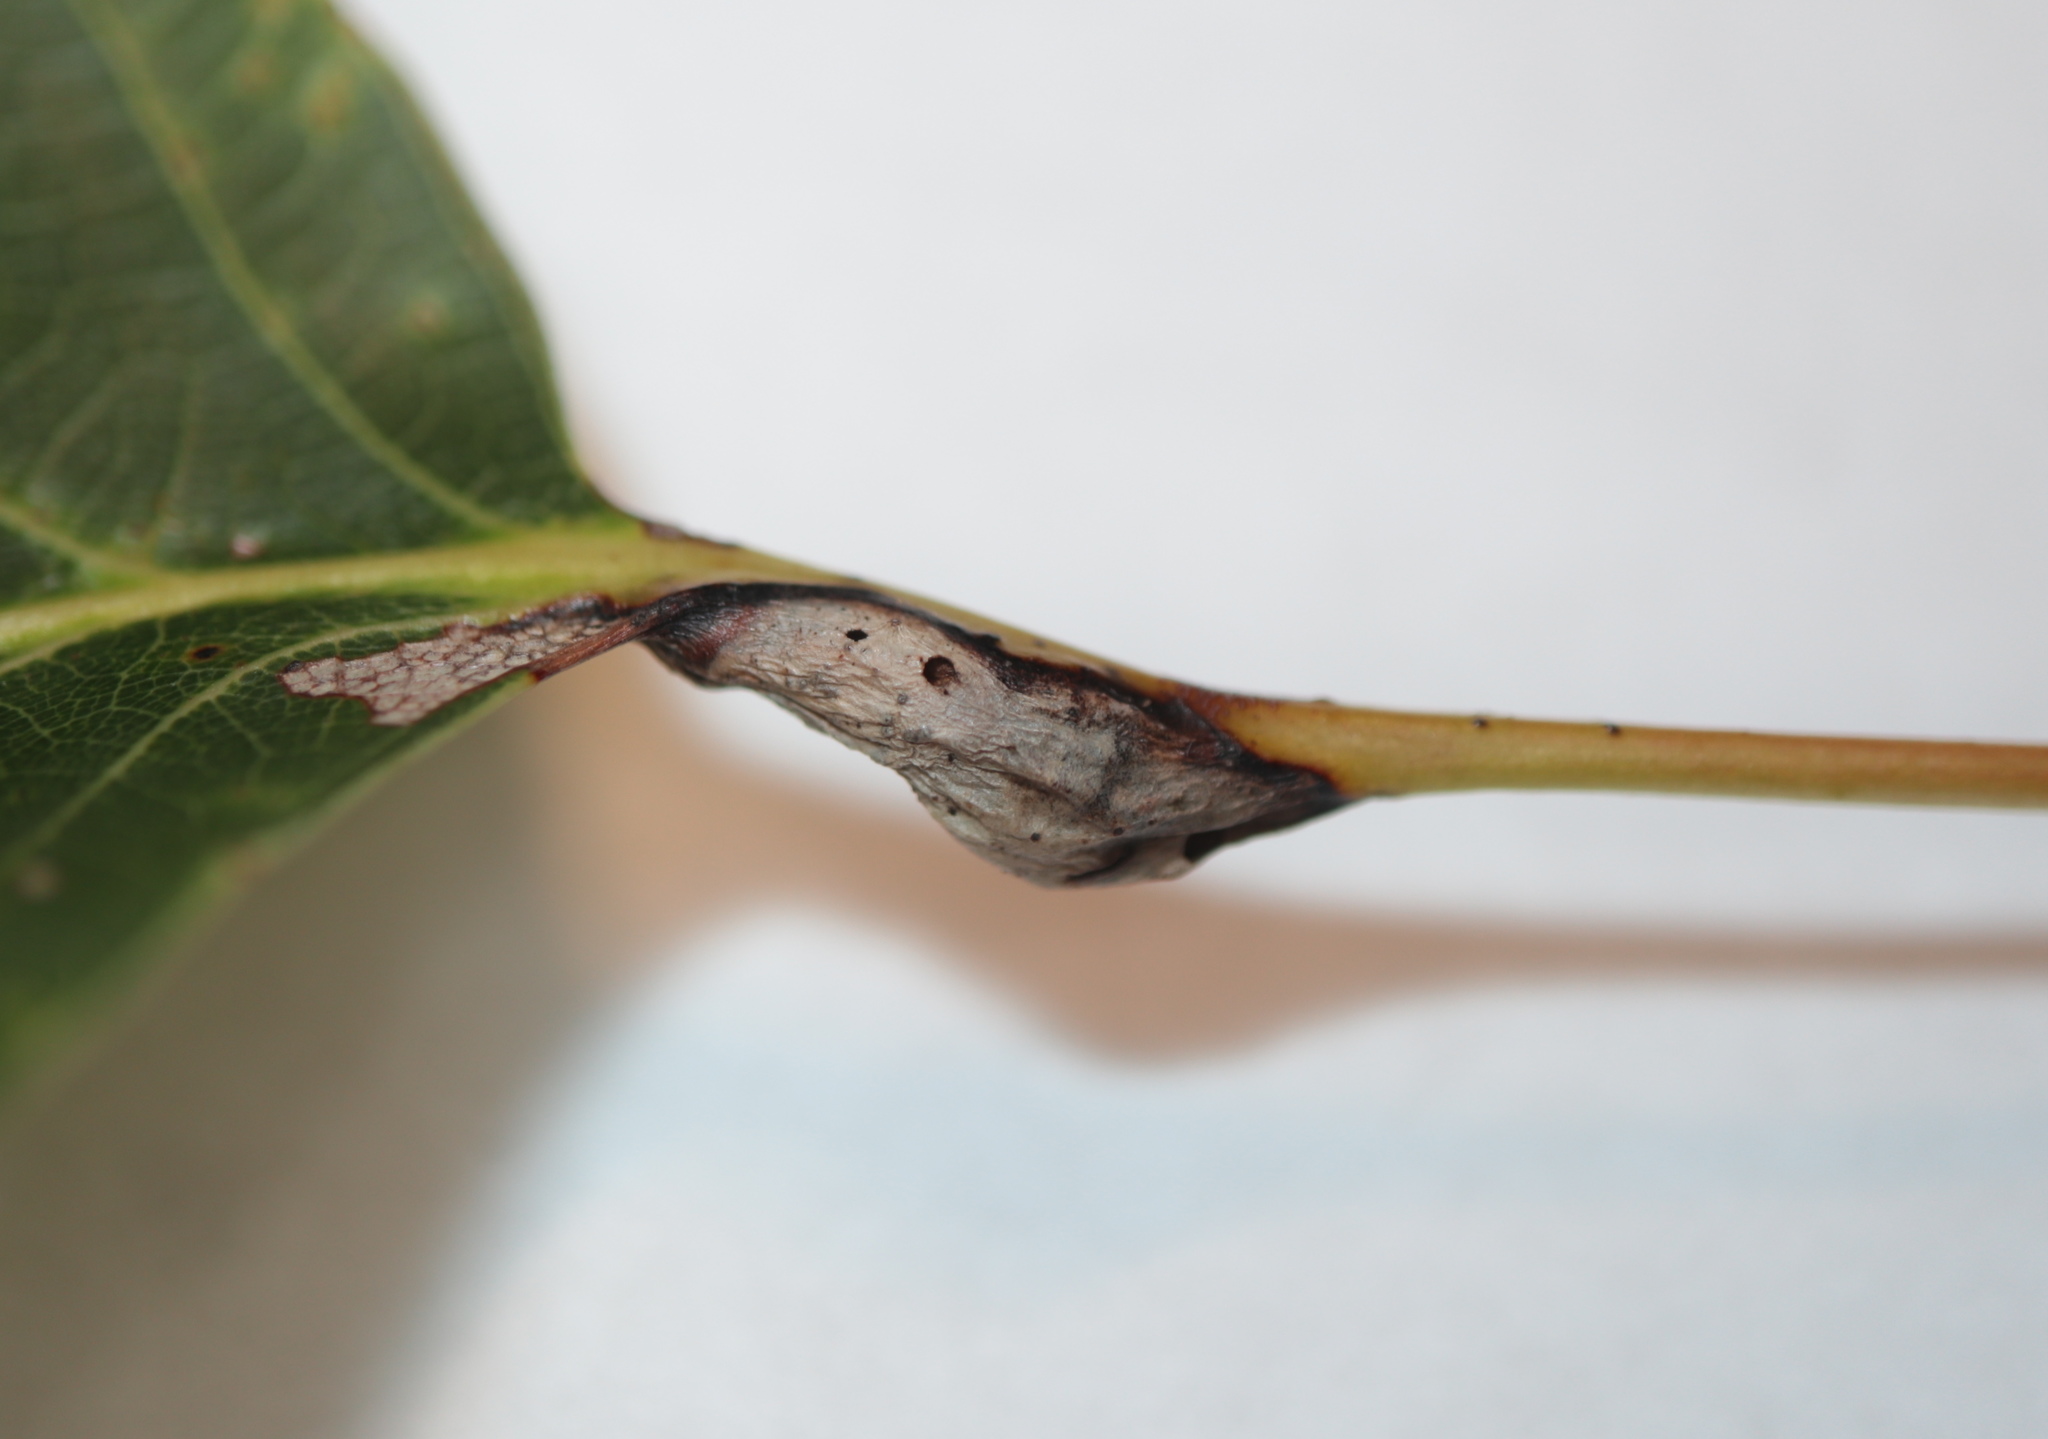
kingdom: Animalia
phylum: Arthropoda
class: Insecta
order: Hymenoptera
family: Cynipidae
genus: Melikaiella
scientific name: Melikaiella tumifica
